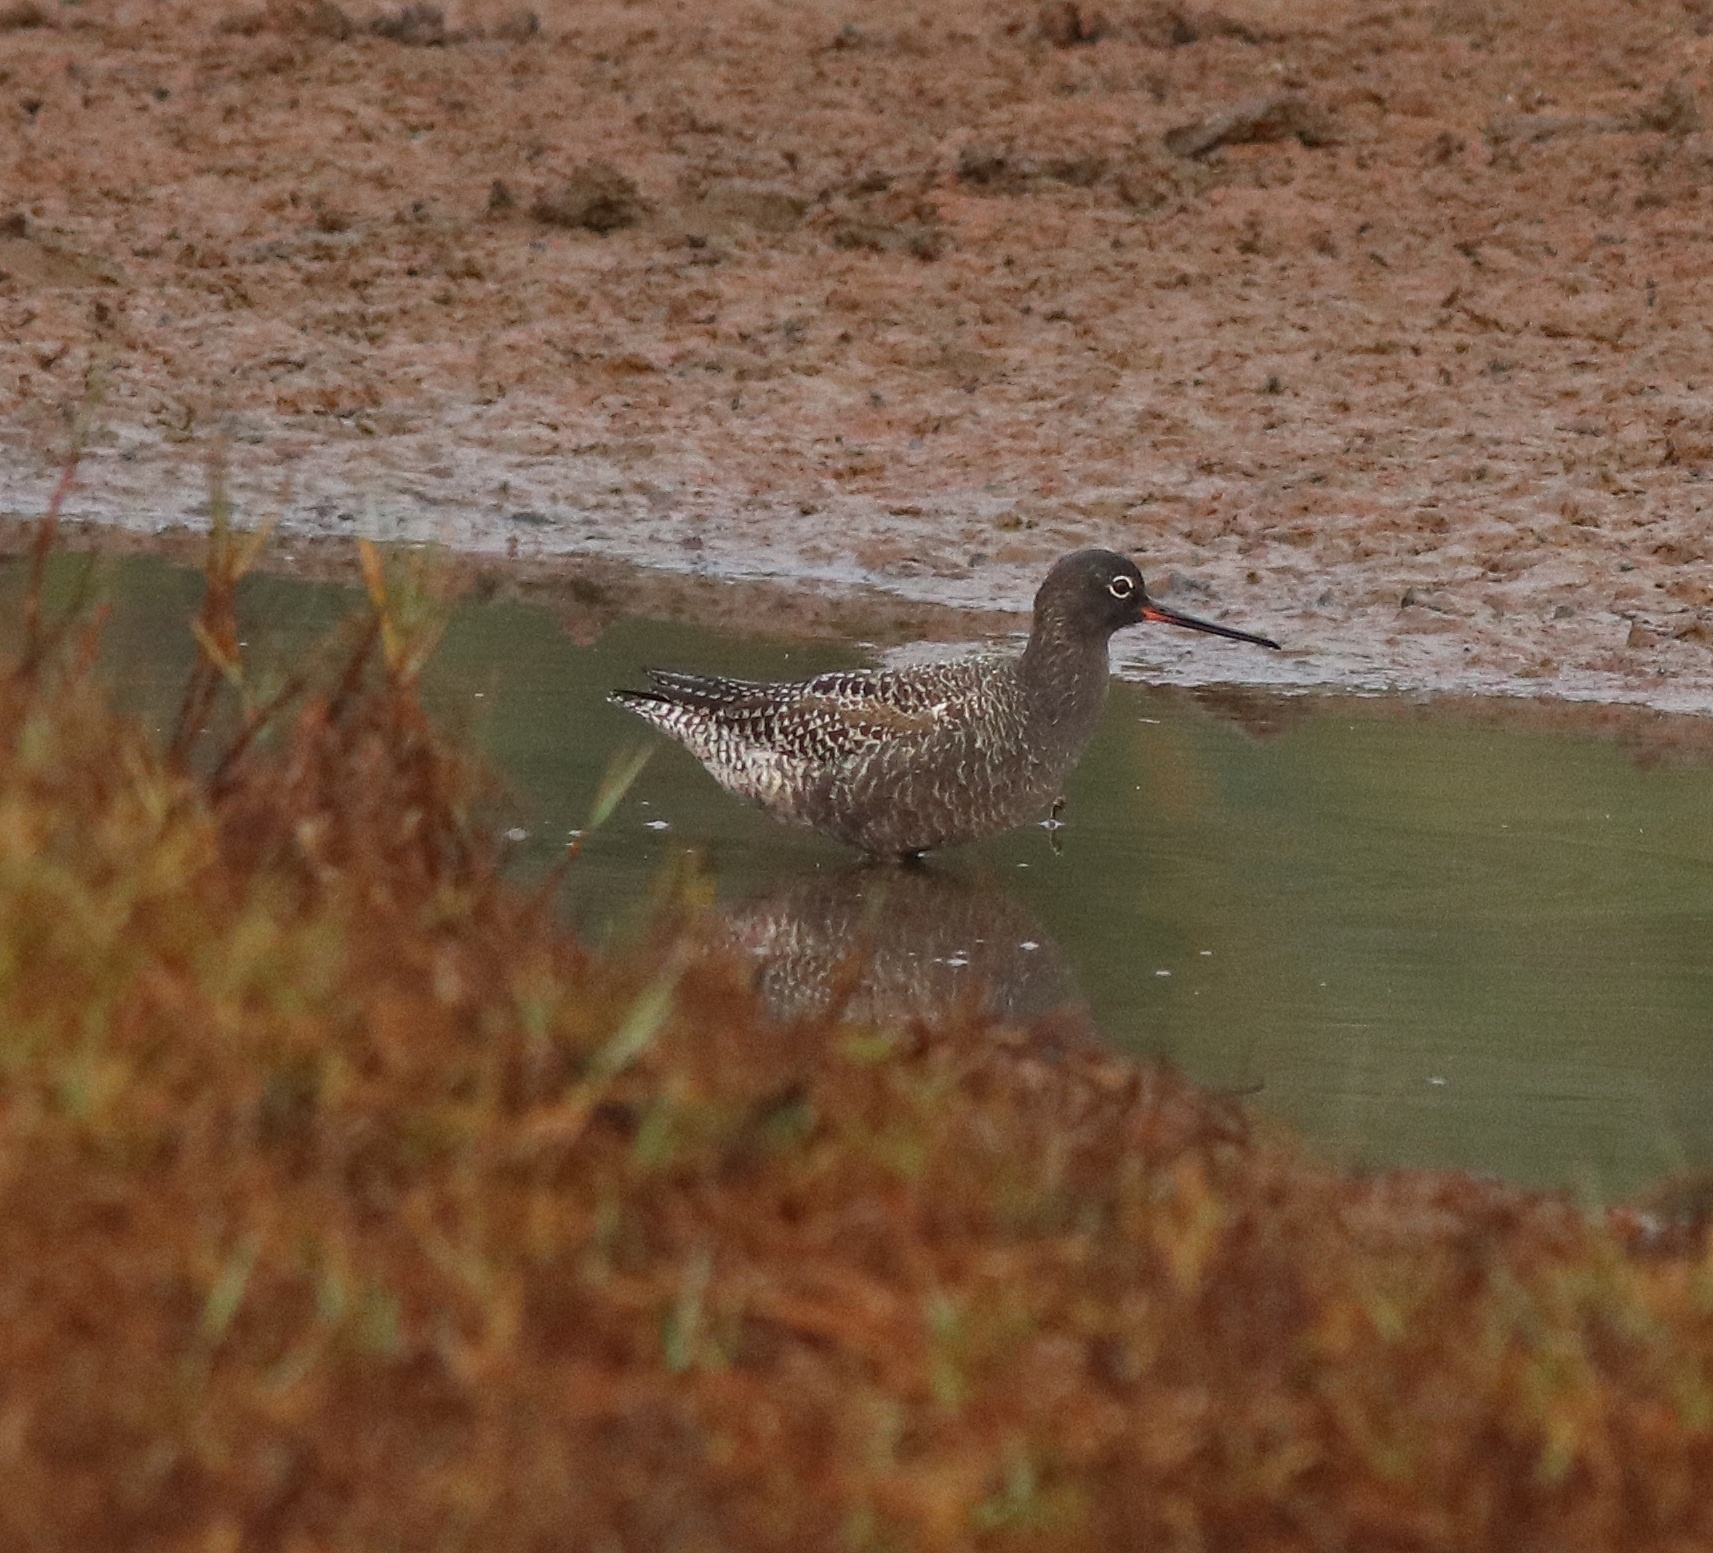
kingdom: Animalia
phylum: Chordata
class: Aves
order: Charadriiformes
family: Scolopacidae
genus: Tringa
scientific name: Tringa erythropus
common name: Spotted redshank
